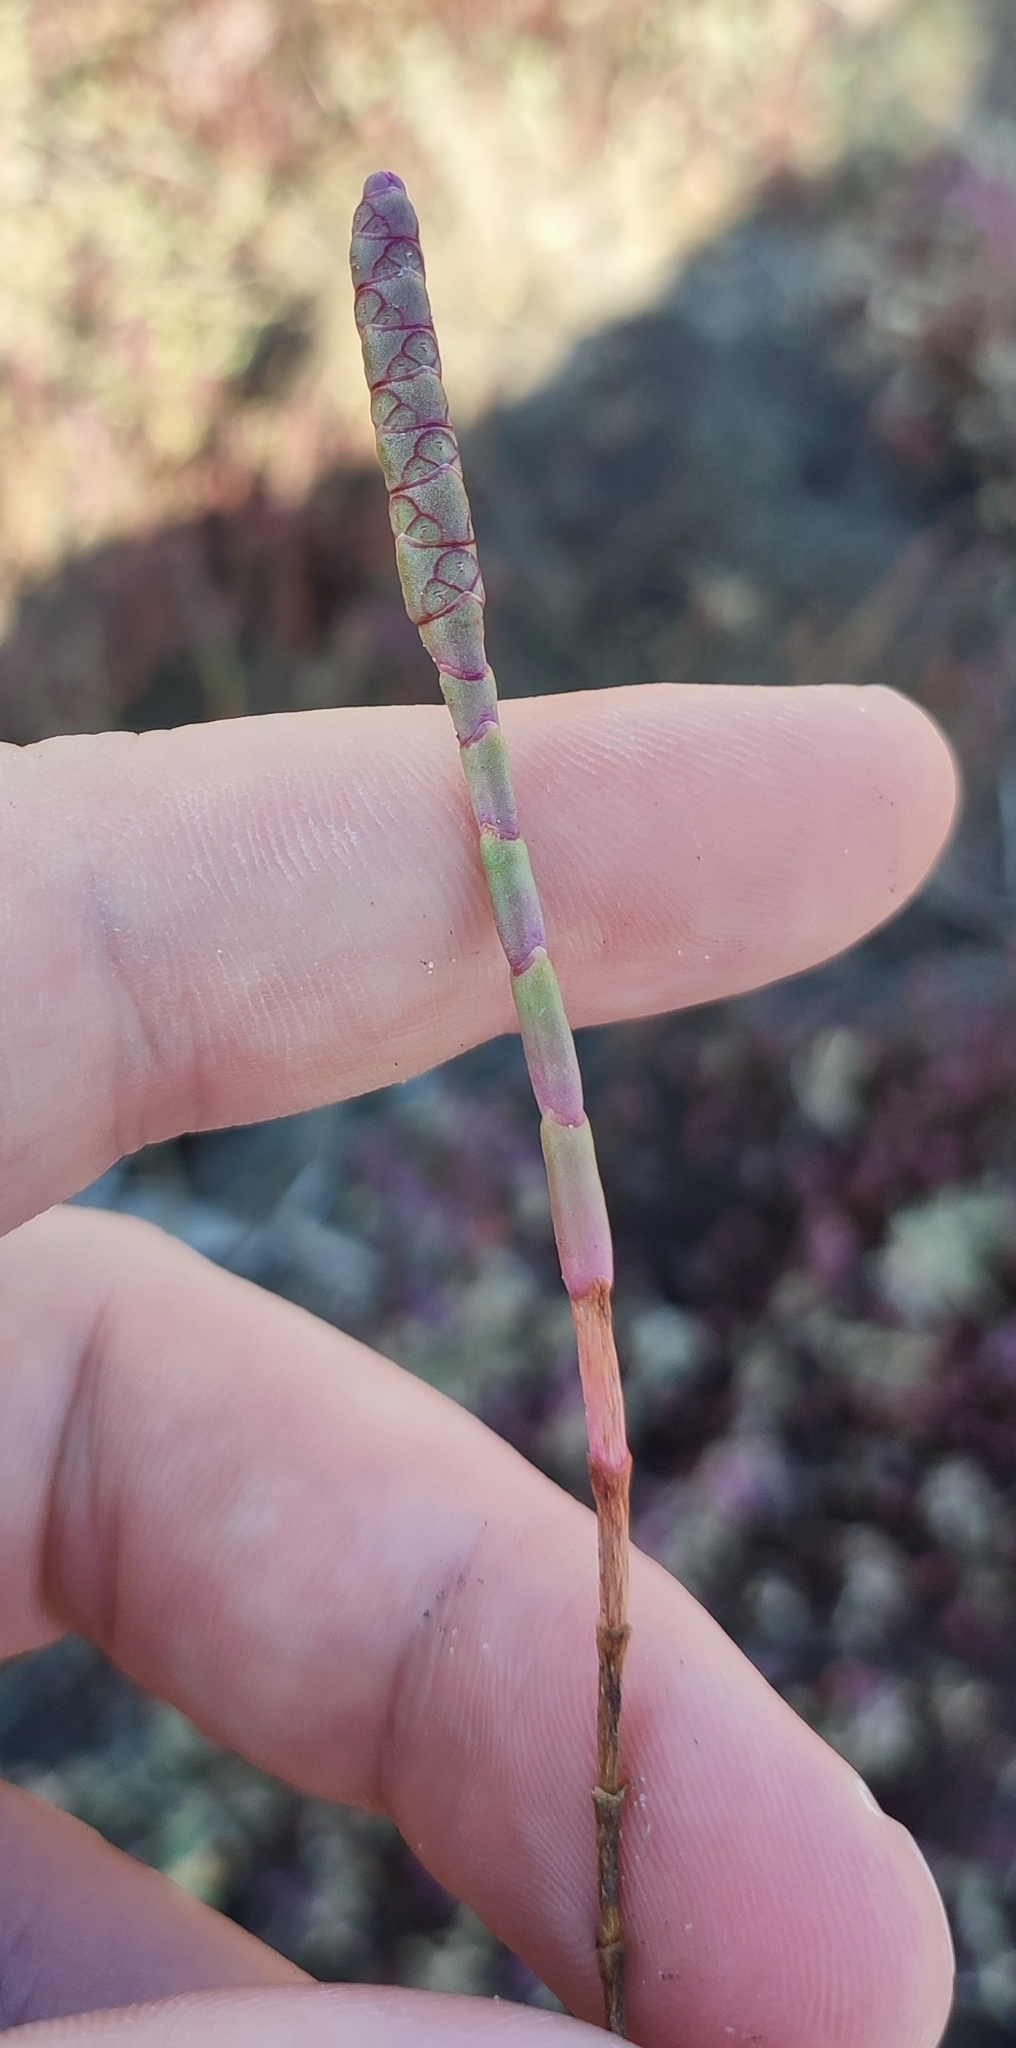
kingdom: Plantae
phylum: Tracheophyta
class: Magnoliopsida
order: Caryophyllales
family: Amaranthaceae
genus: Salicornia
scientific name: Salicornia perennans
